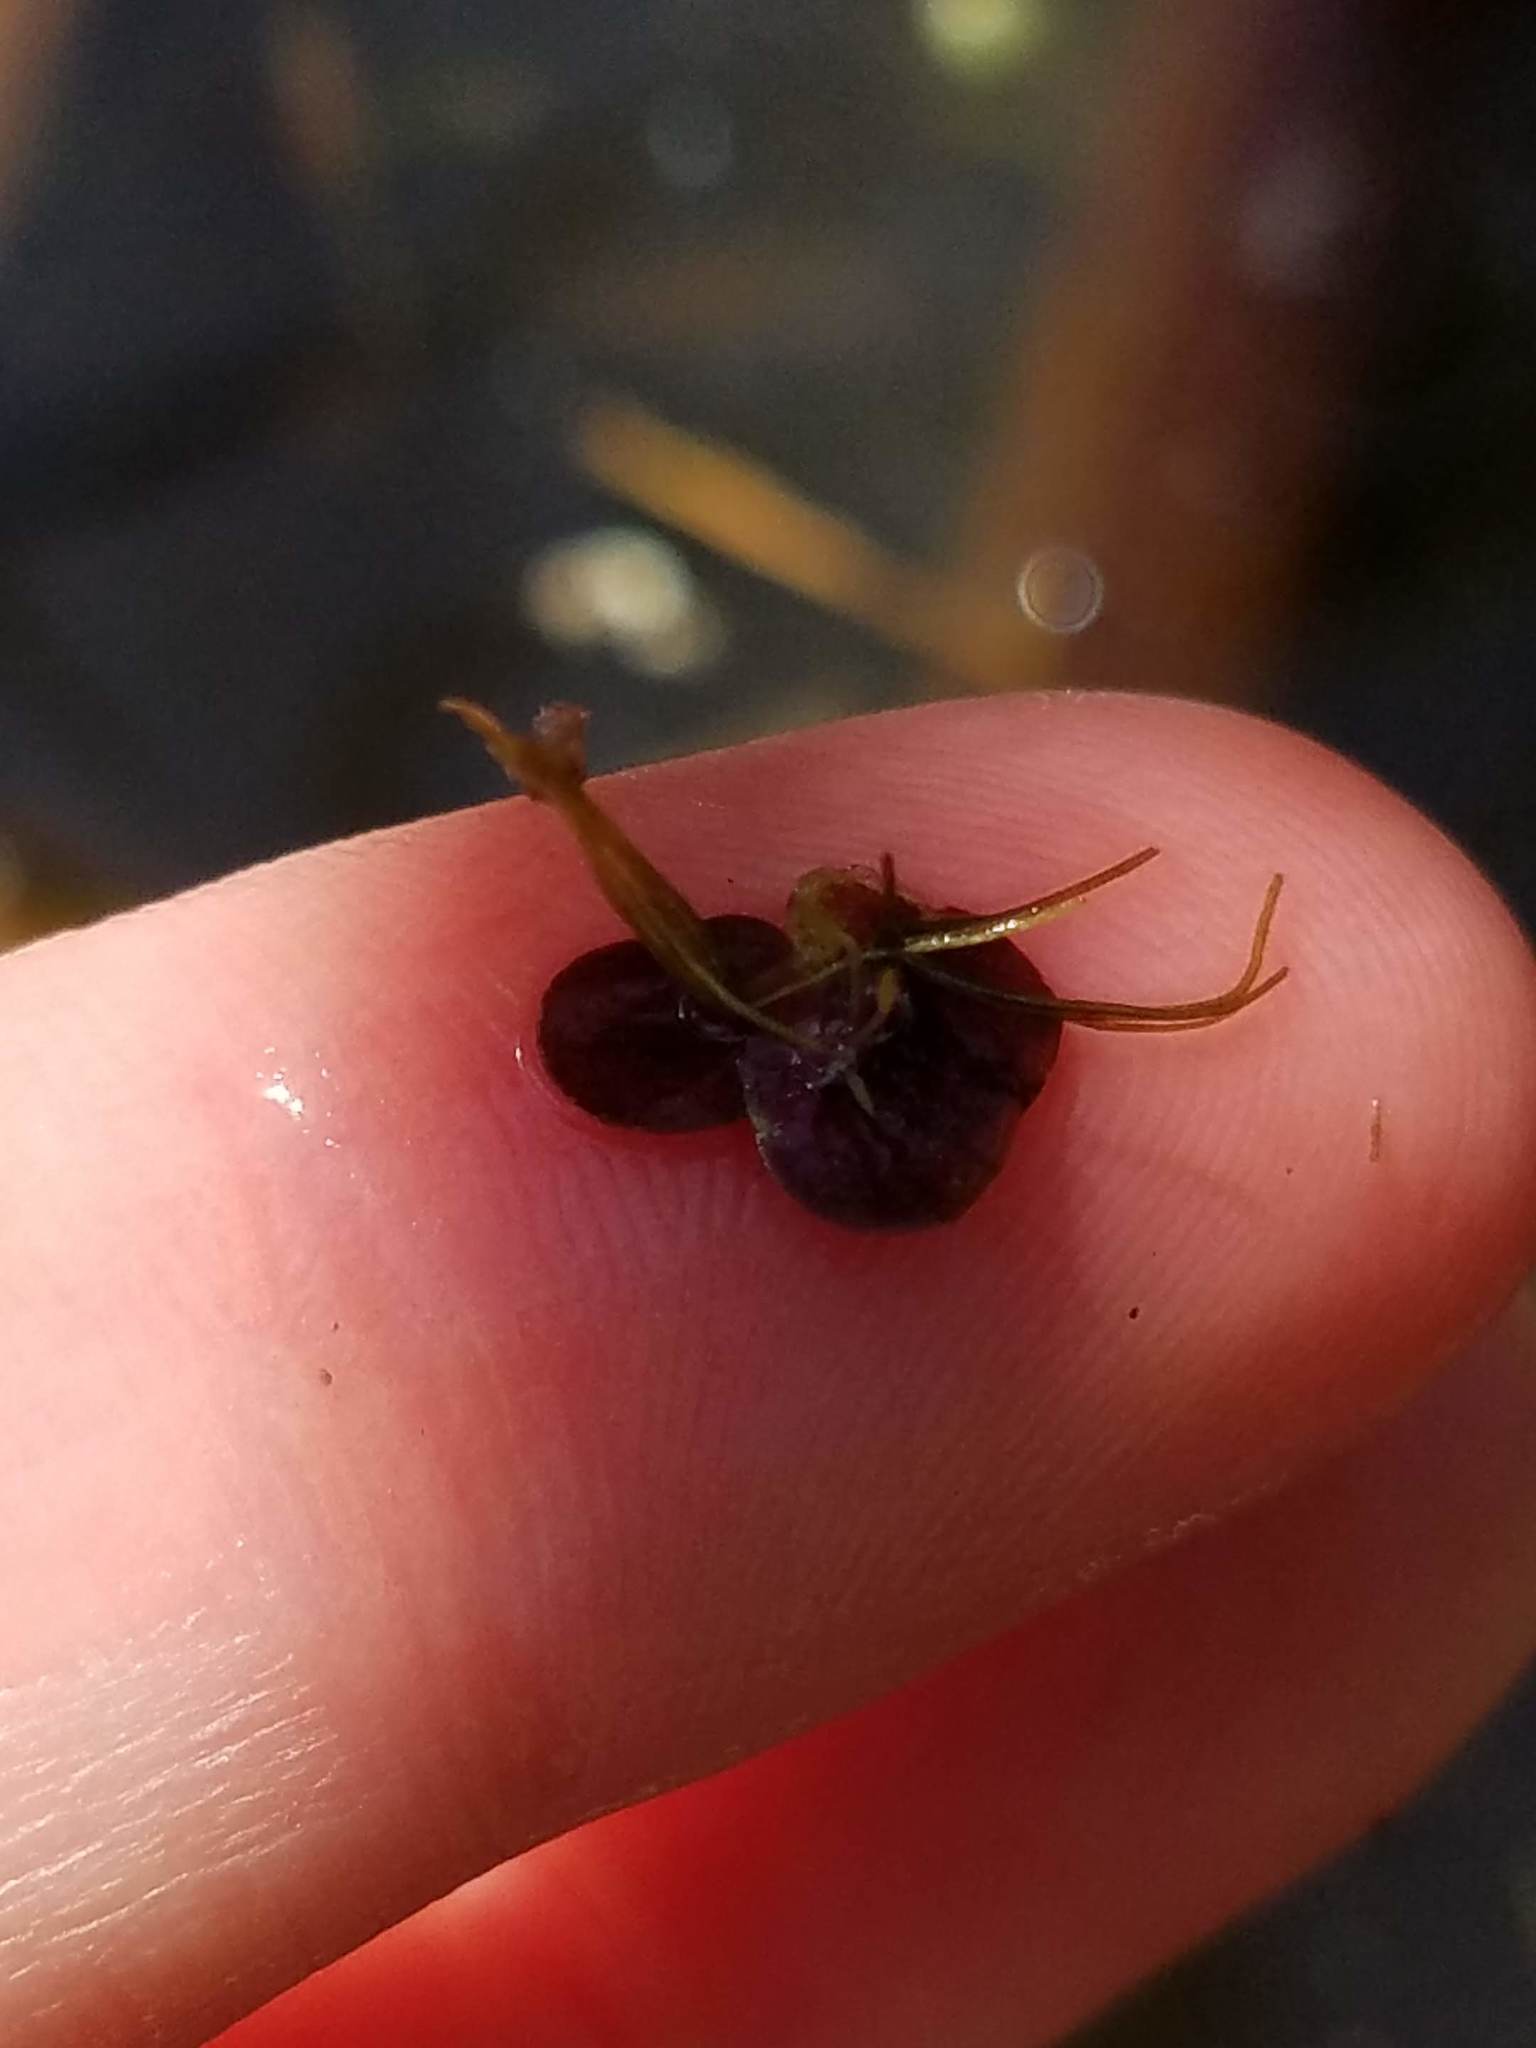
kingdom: Plantae
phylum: Tracheophyta
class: Liliopsida
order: Alismatales
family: Araceae
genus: Spirodela
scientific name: Spirodela polyrhiza
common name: Great duckweed
